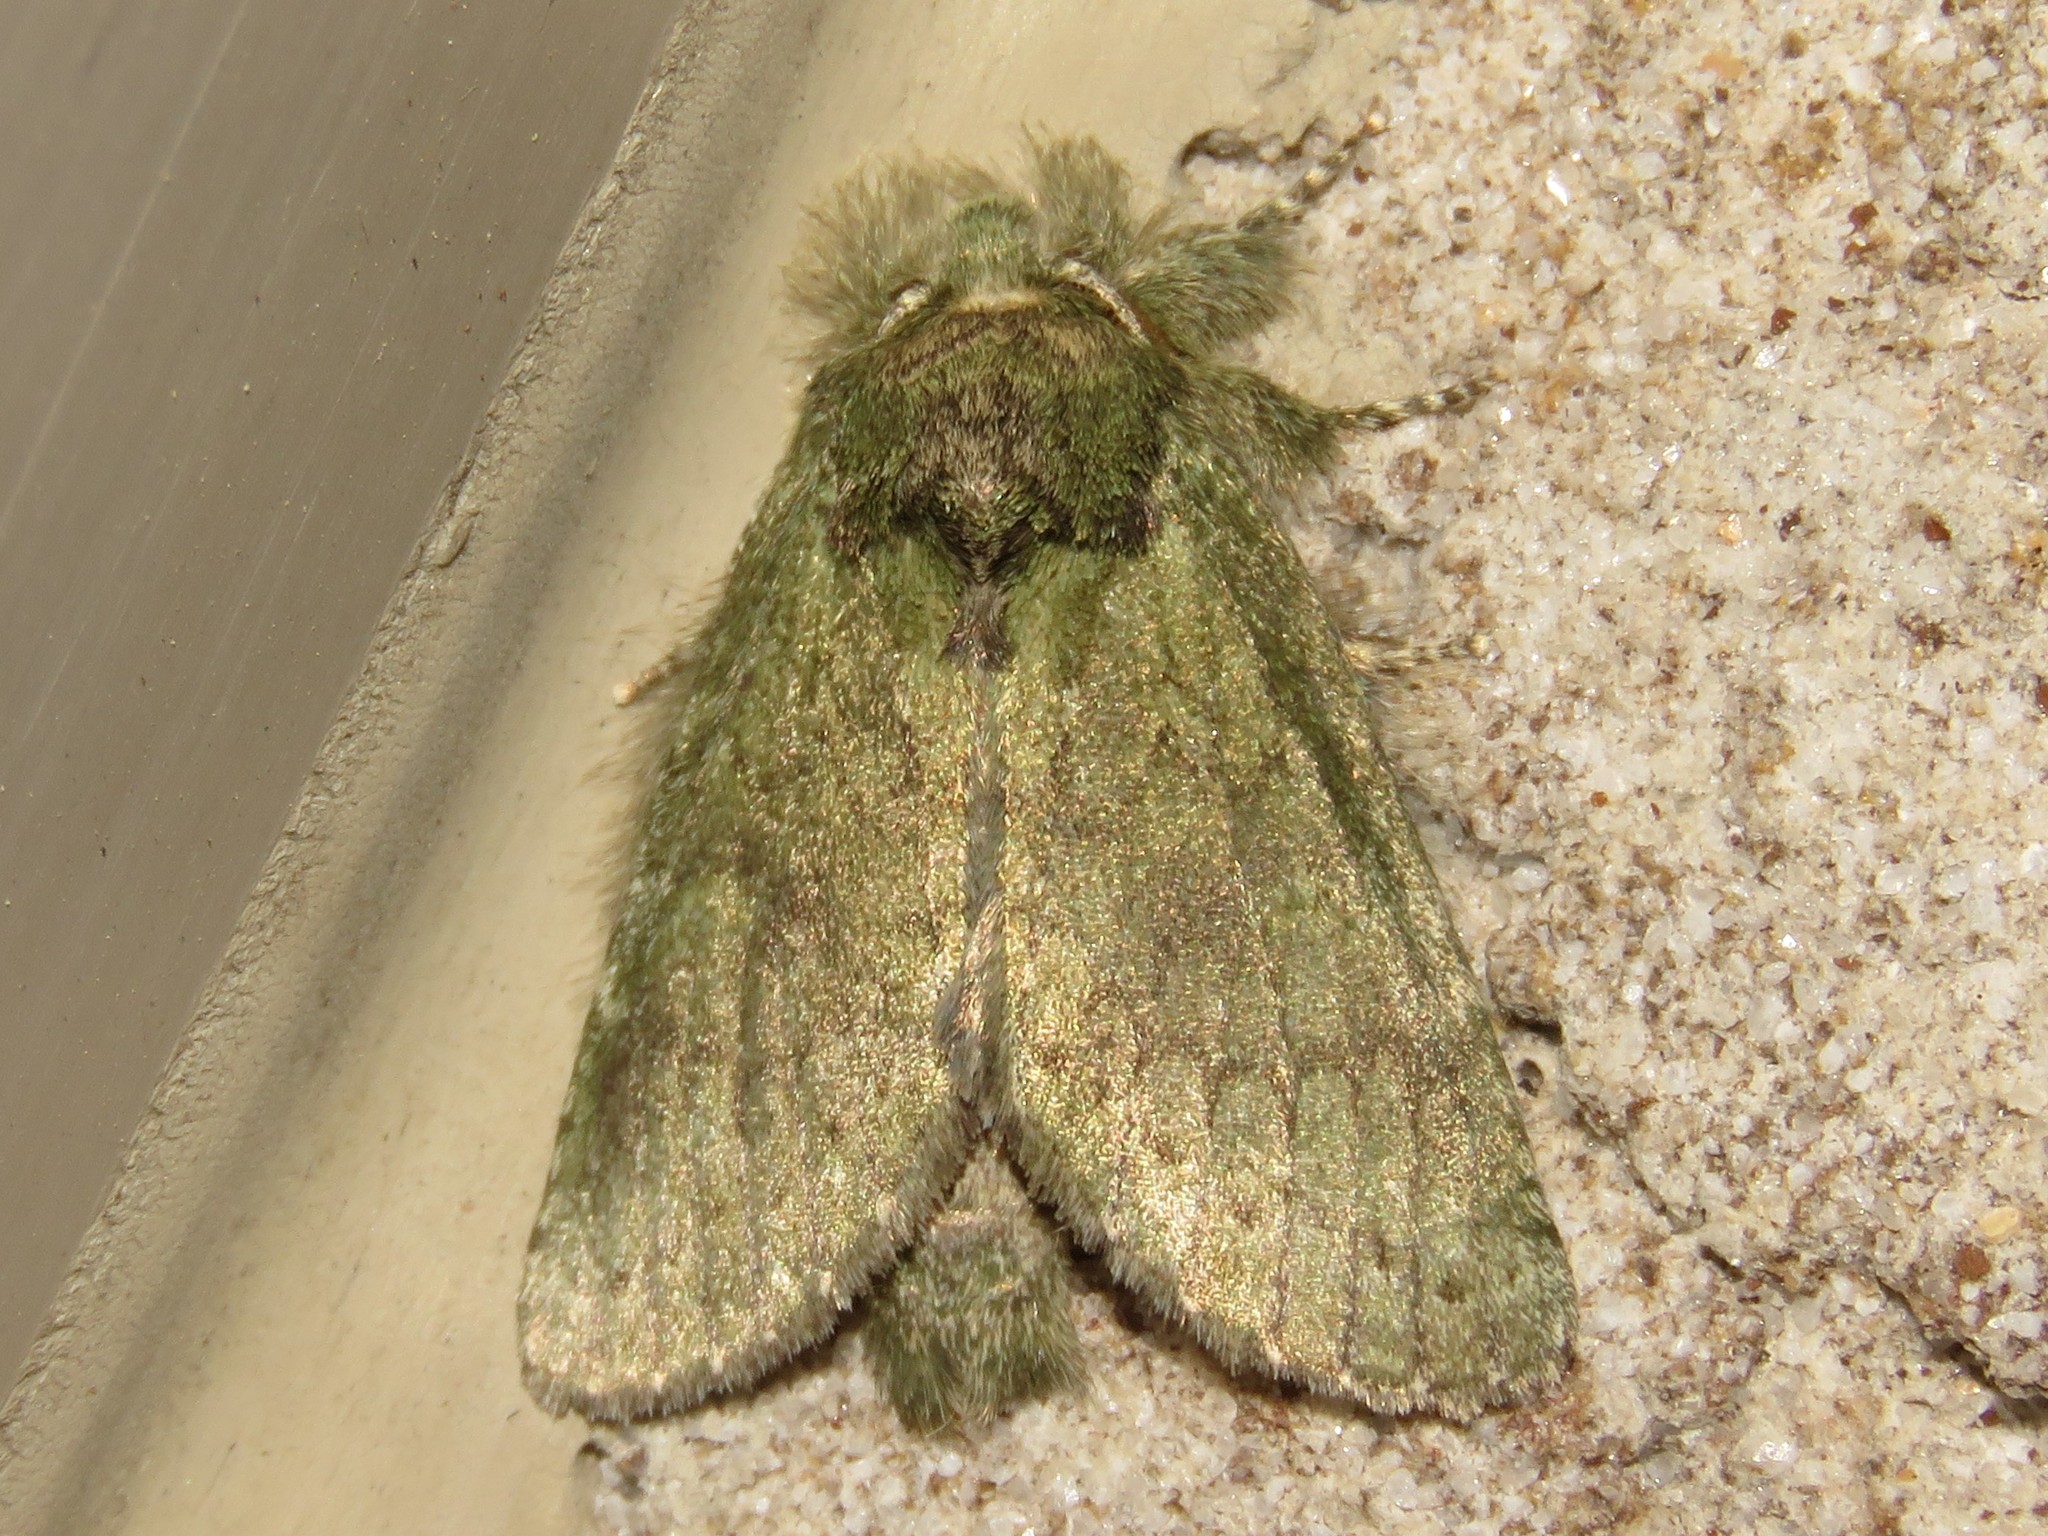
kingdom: Animalia
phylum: Arthropoda
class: Insecta
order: Lepidoptera
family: Notodontidae
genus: Disphragis
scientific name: Disphragis Cecrita guttivitta
